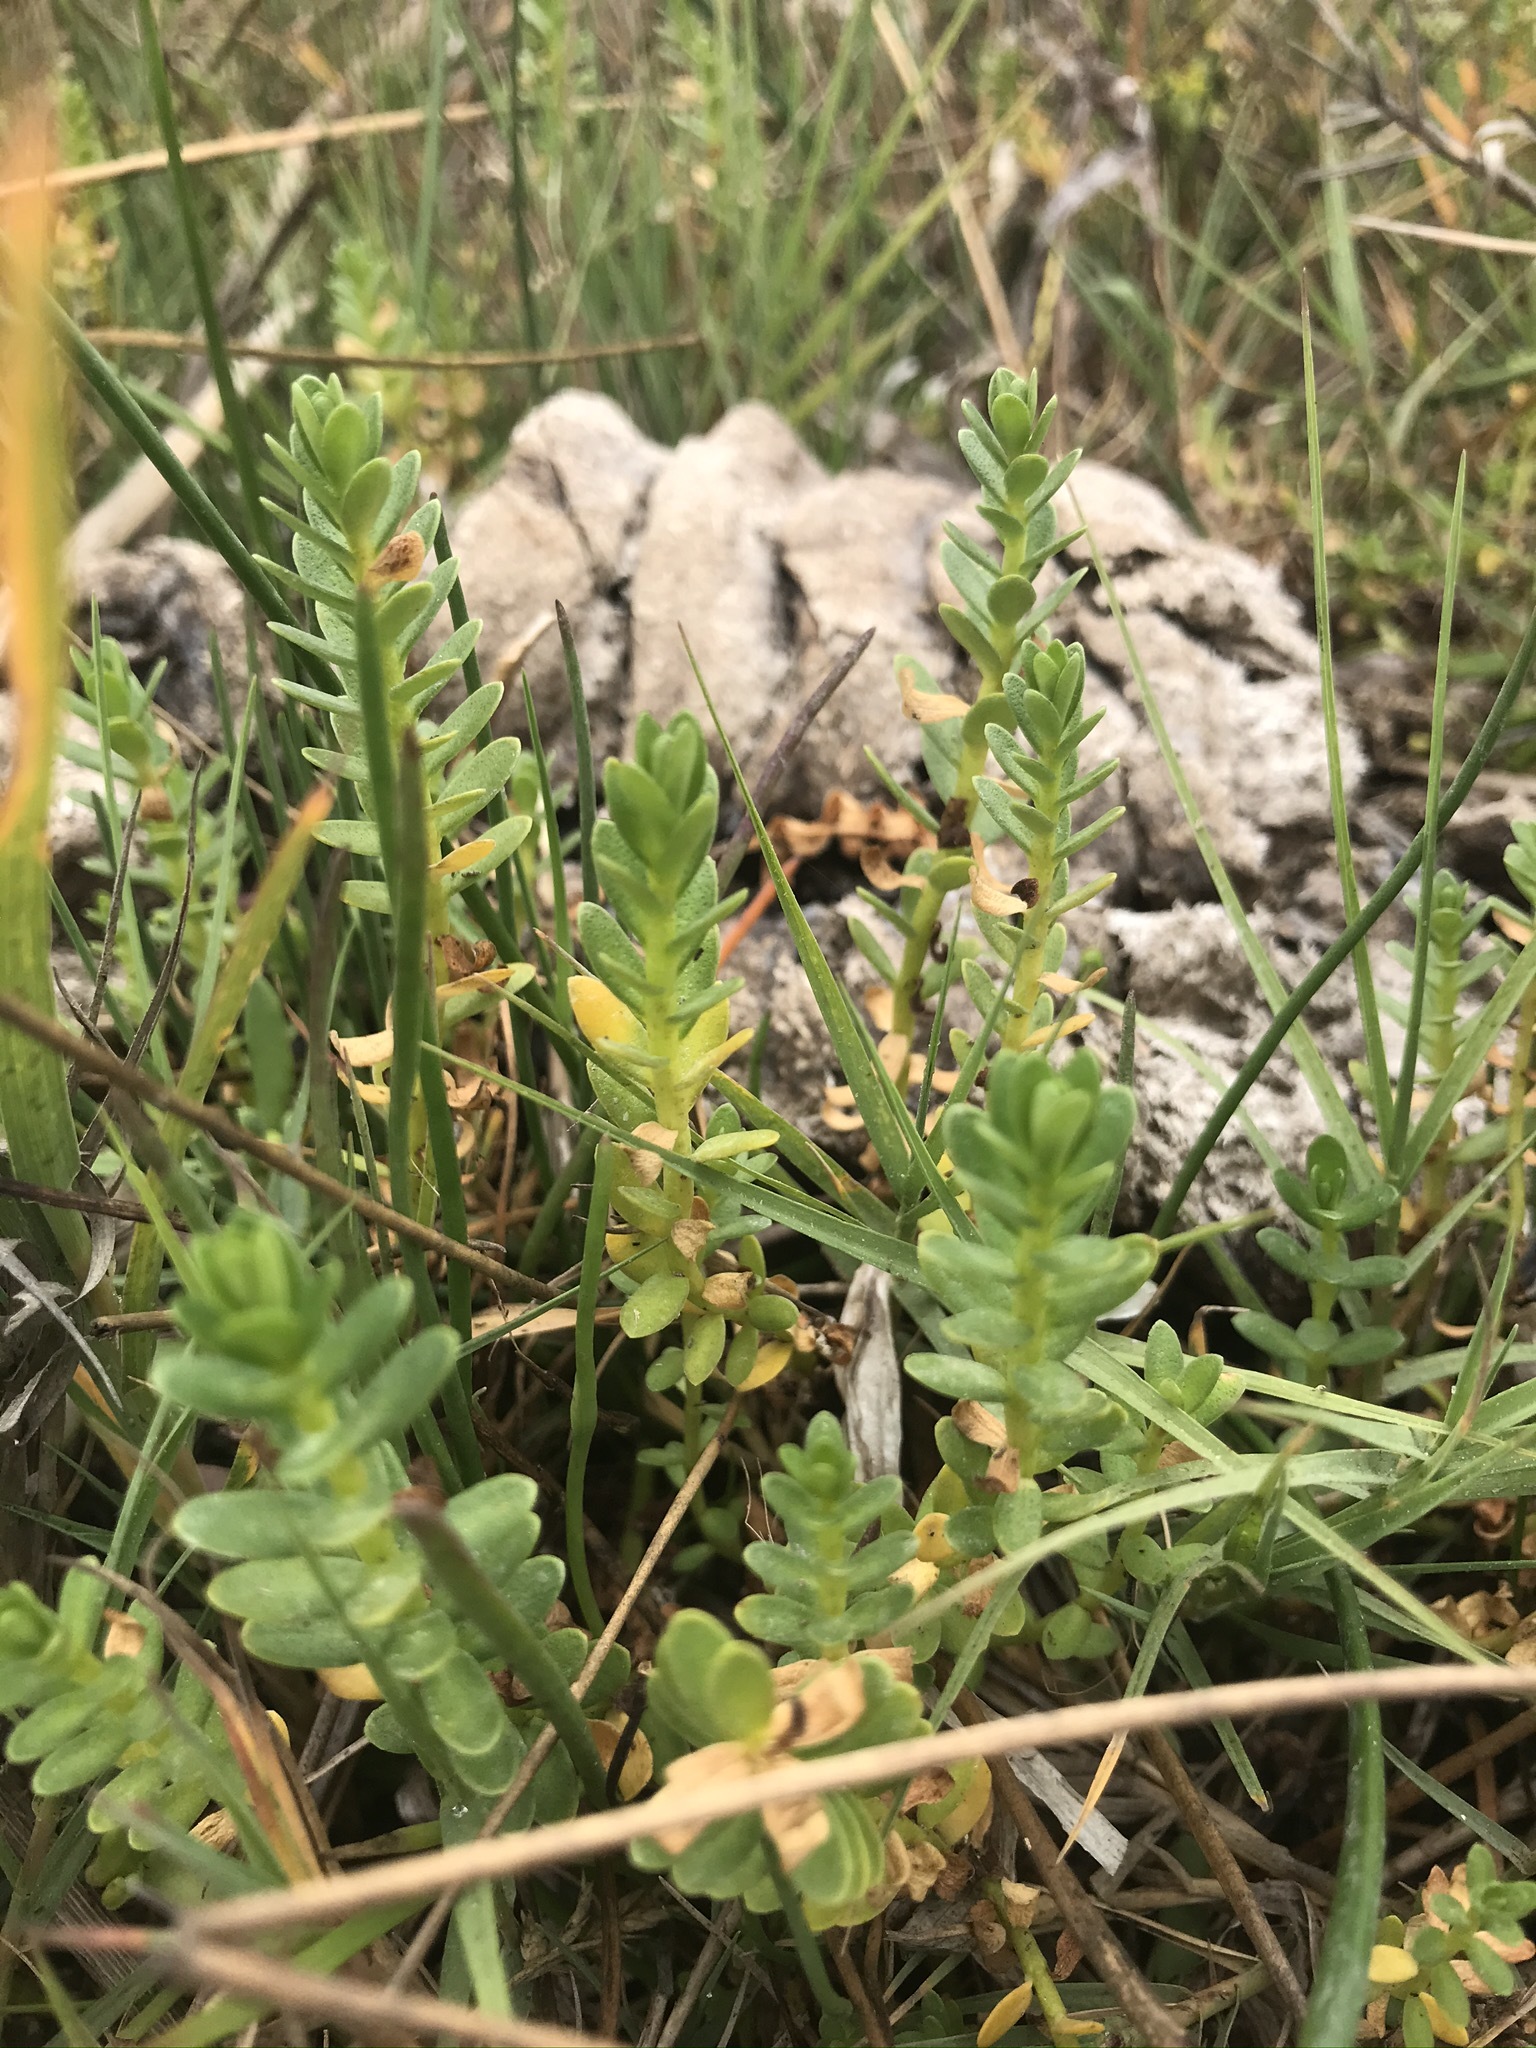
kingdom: Plantae
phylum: Tracheophyta
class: Magnoliopsida
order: Ericales
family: Primulaceae
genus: Lysimachia
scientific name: Lysimachia maritima
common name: Sea milkwort
